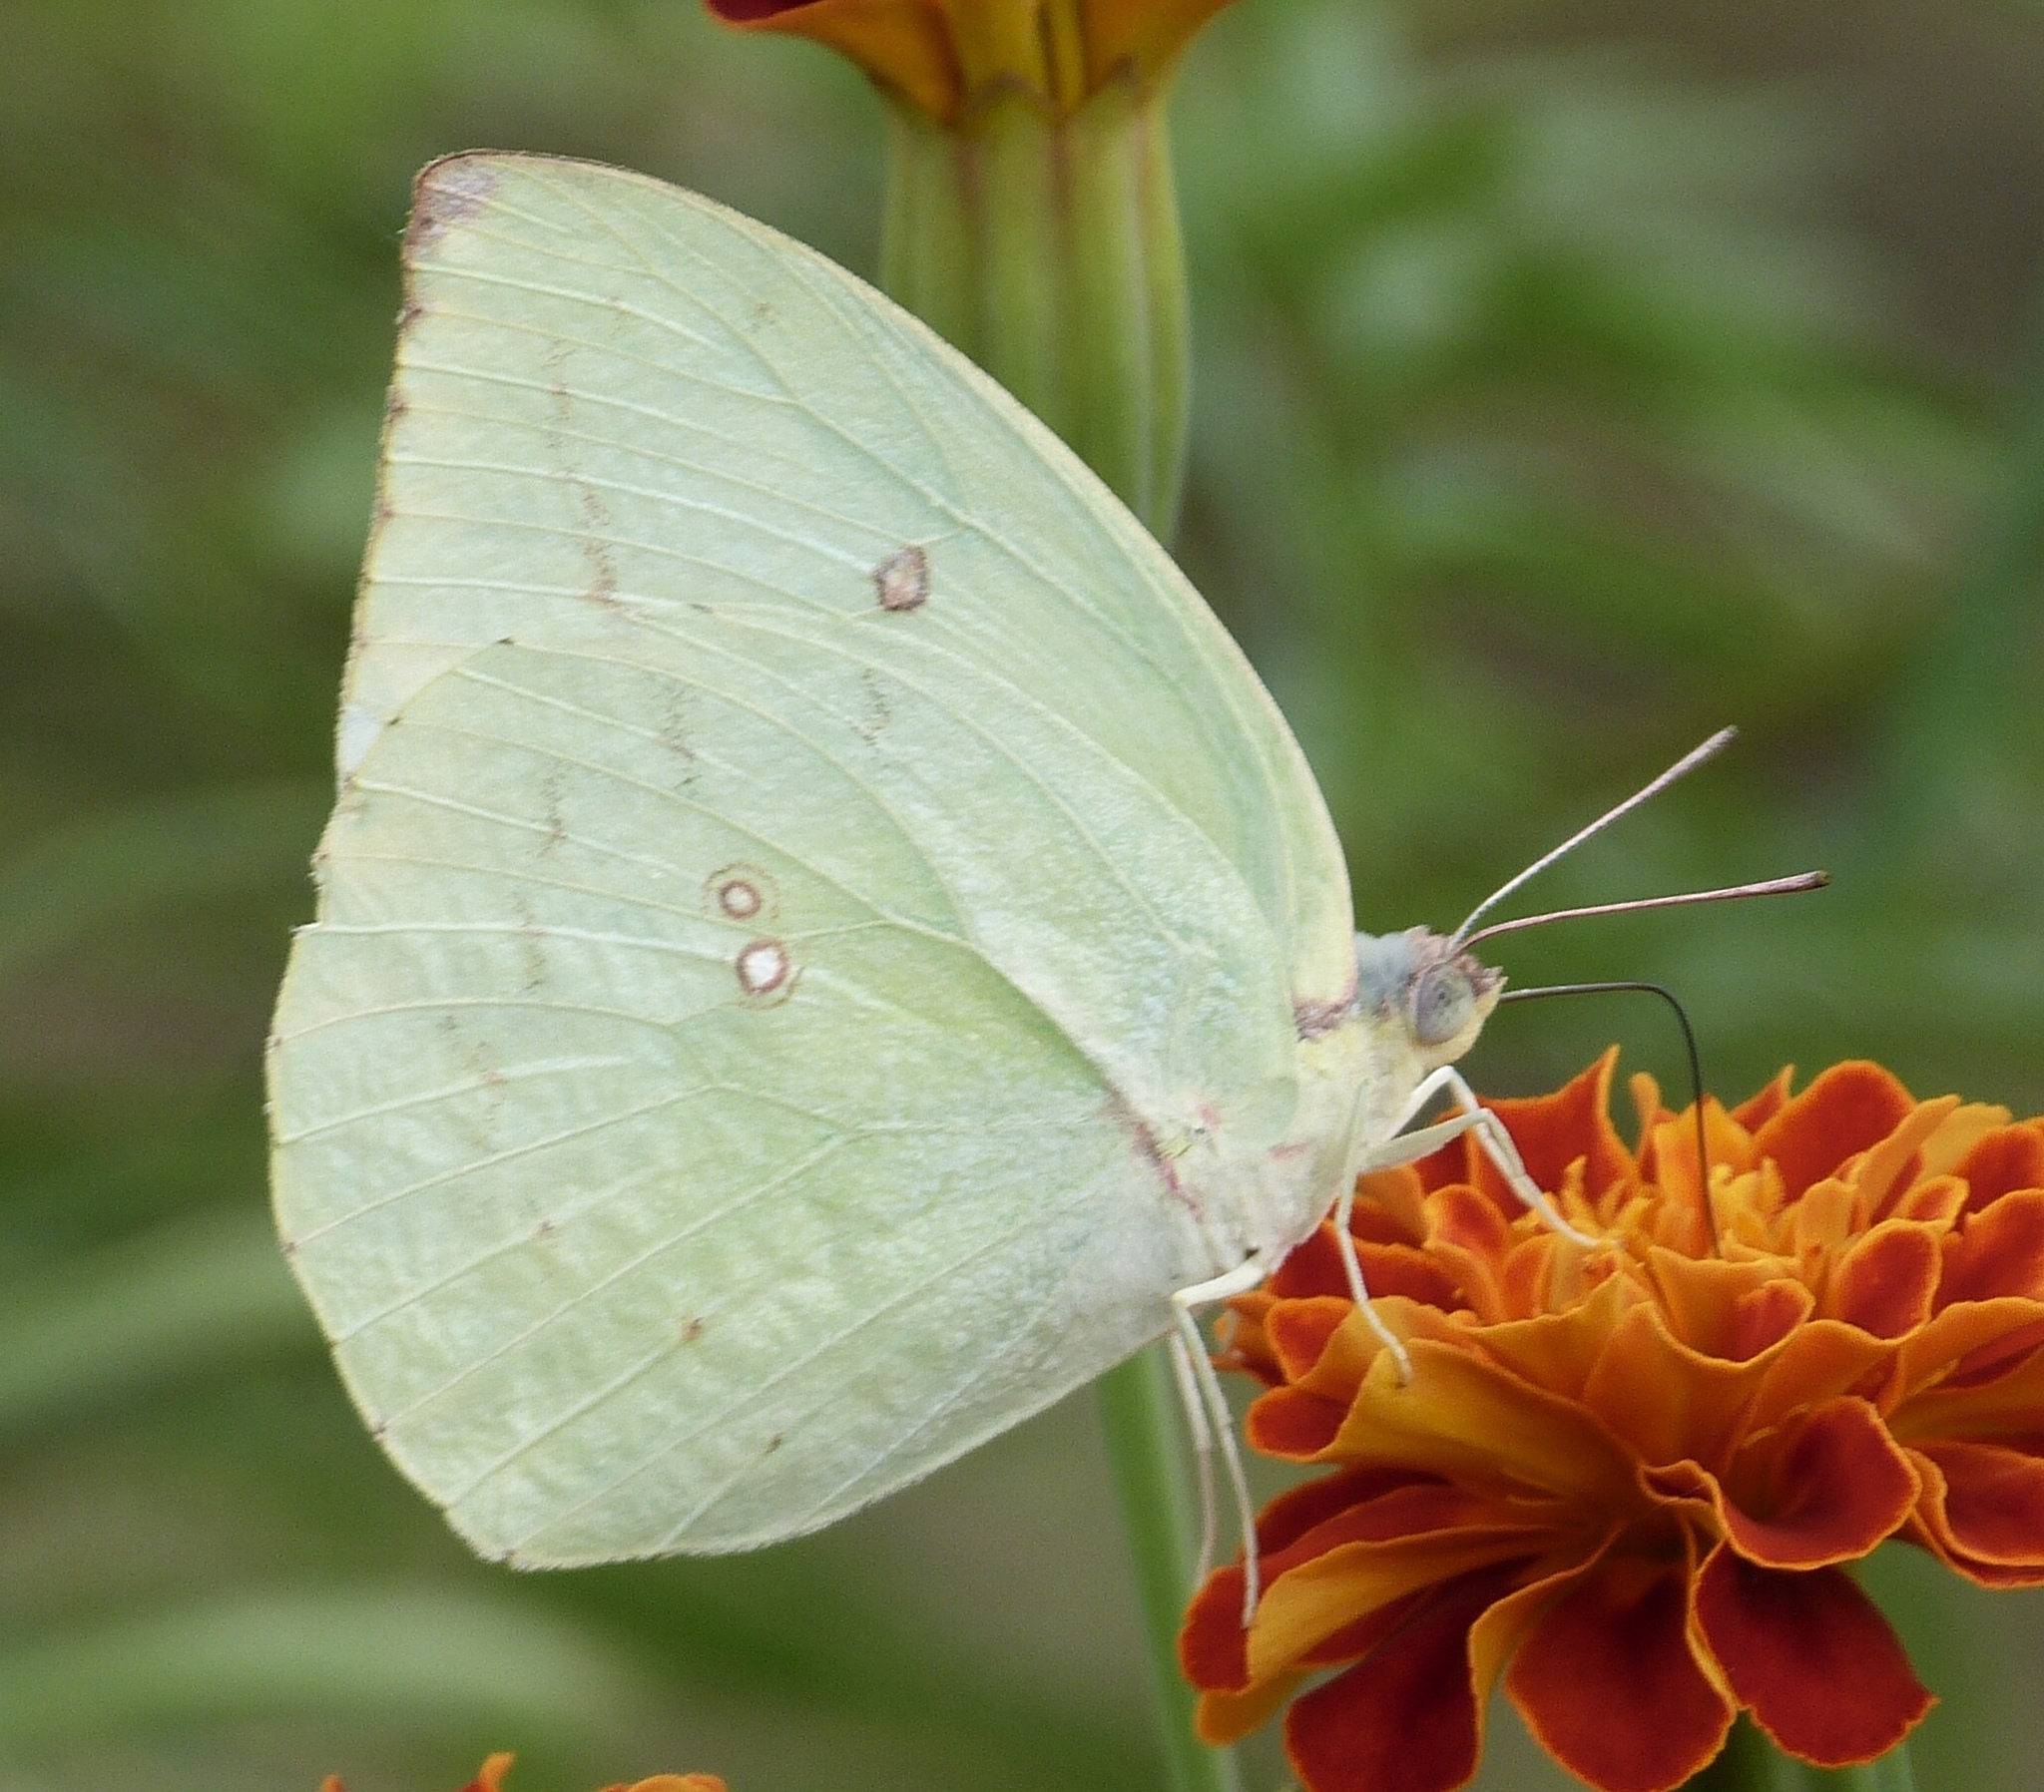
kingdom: Animalia
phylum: Arthropoda
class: Insecta
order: Lepidoptera
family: Pieridae
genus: Catopsilia
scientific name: Catopsilia pomona
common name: Common emigrant
